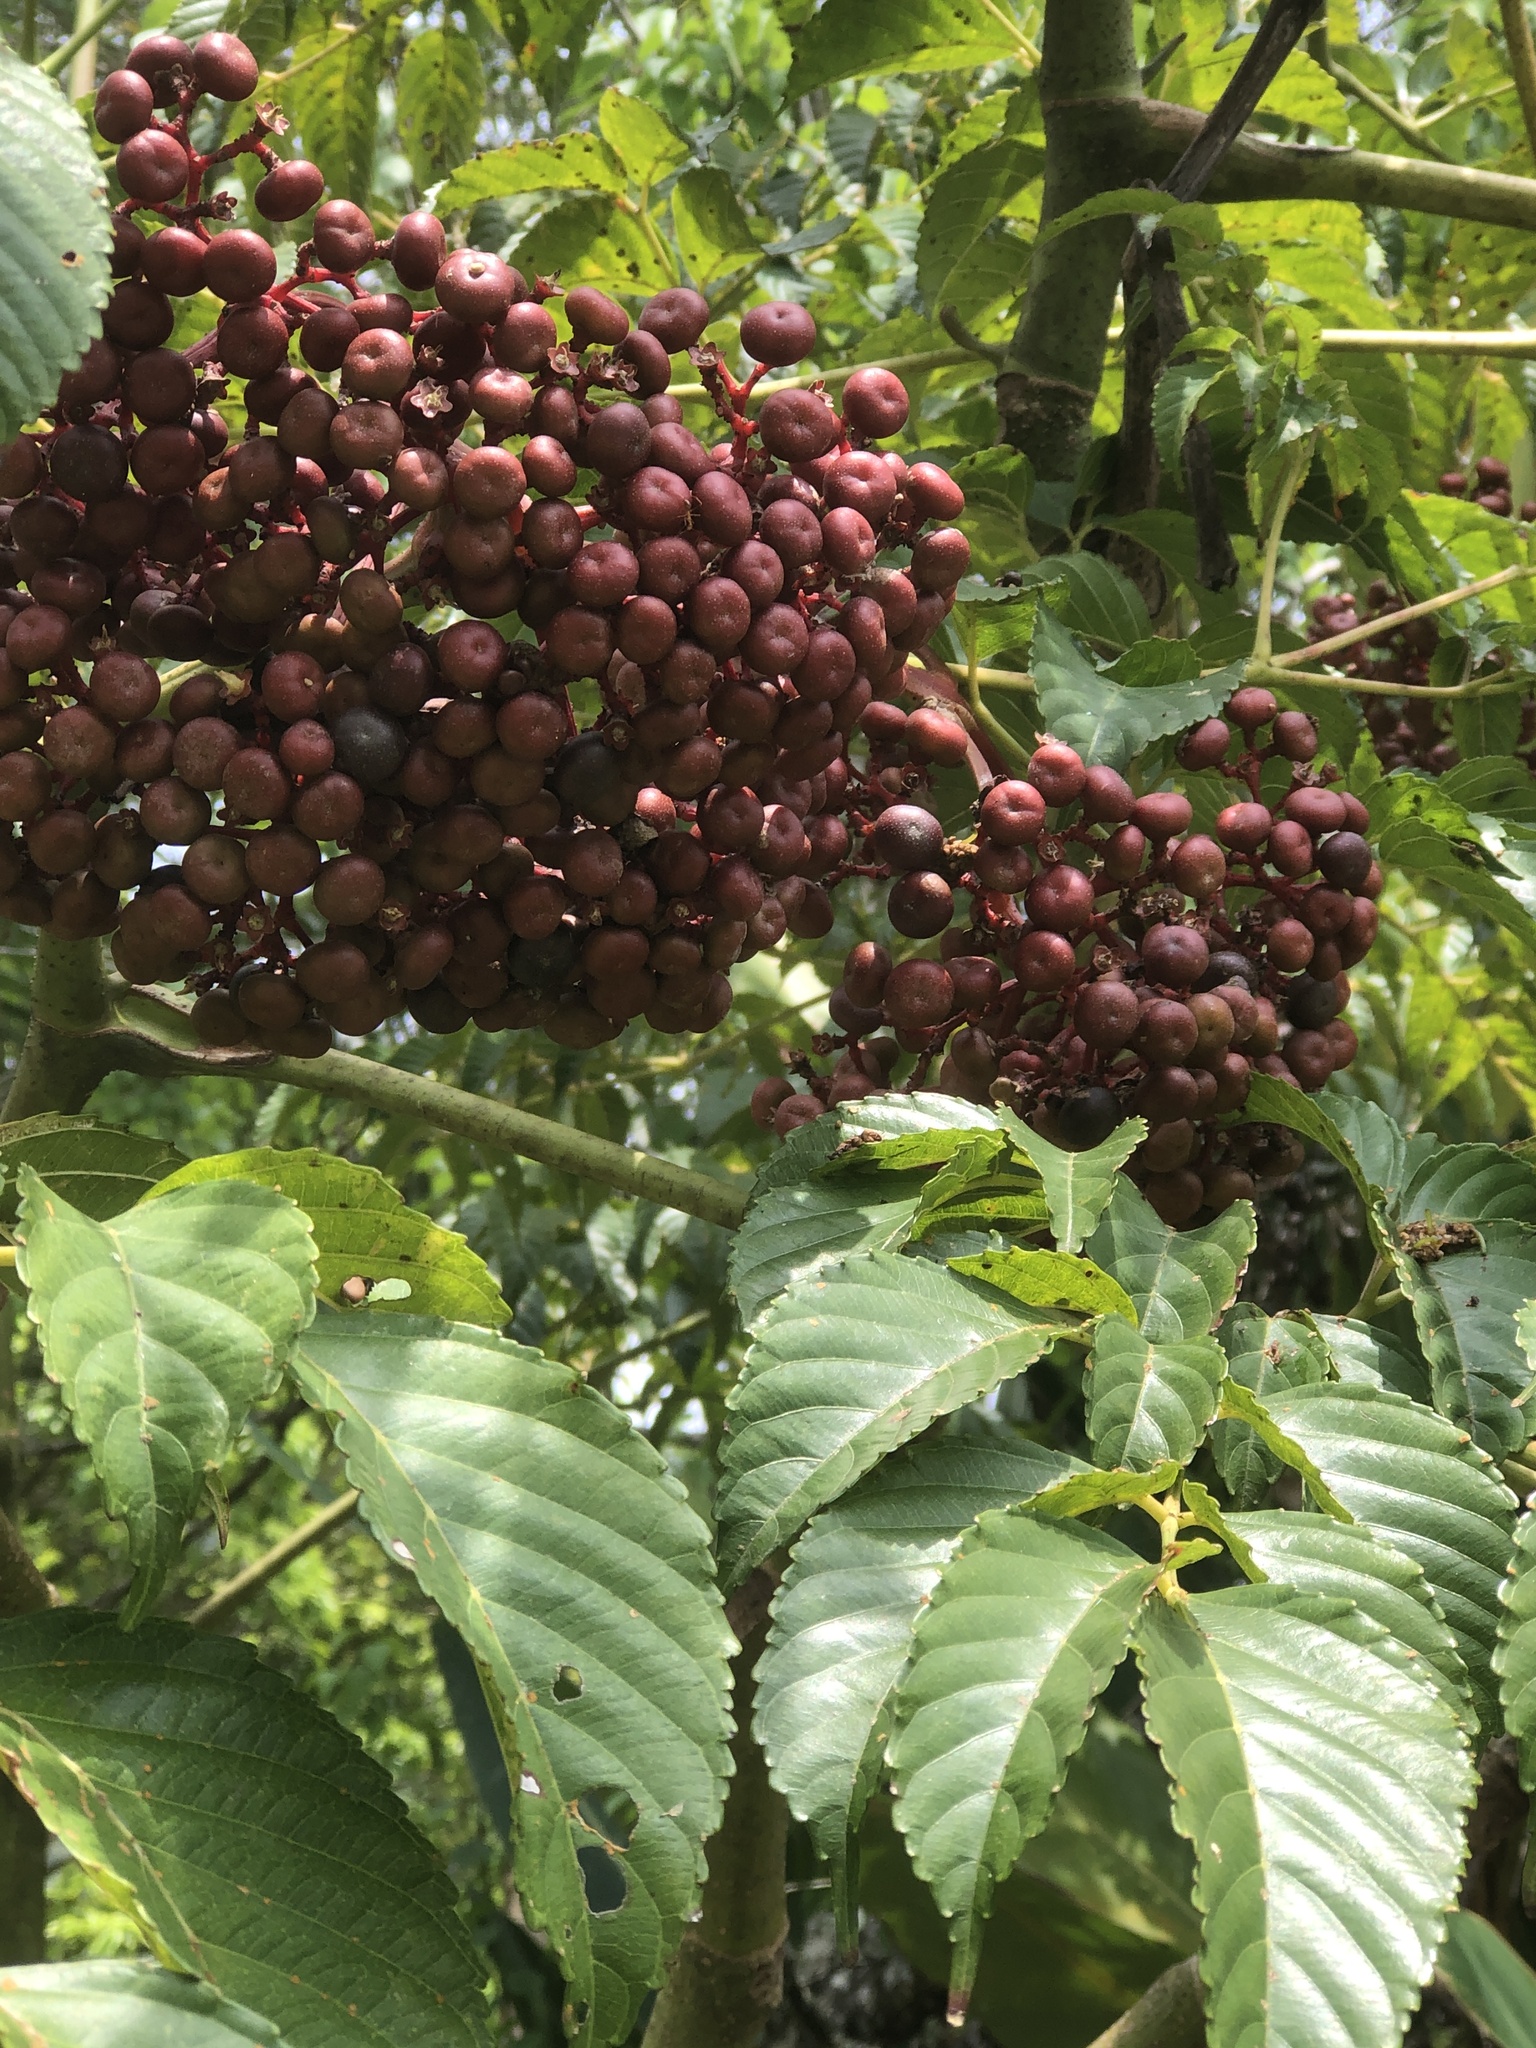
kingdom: Plantae
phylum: Tracheophyta
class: Magnoliopsida
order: Vitales
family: Vitaceae
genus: Leea
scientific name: Leea guineensis
